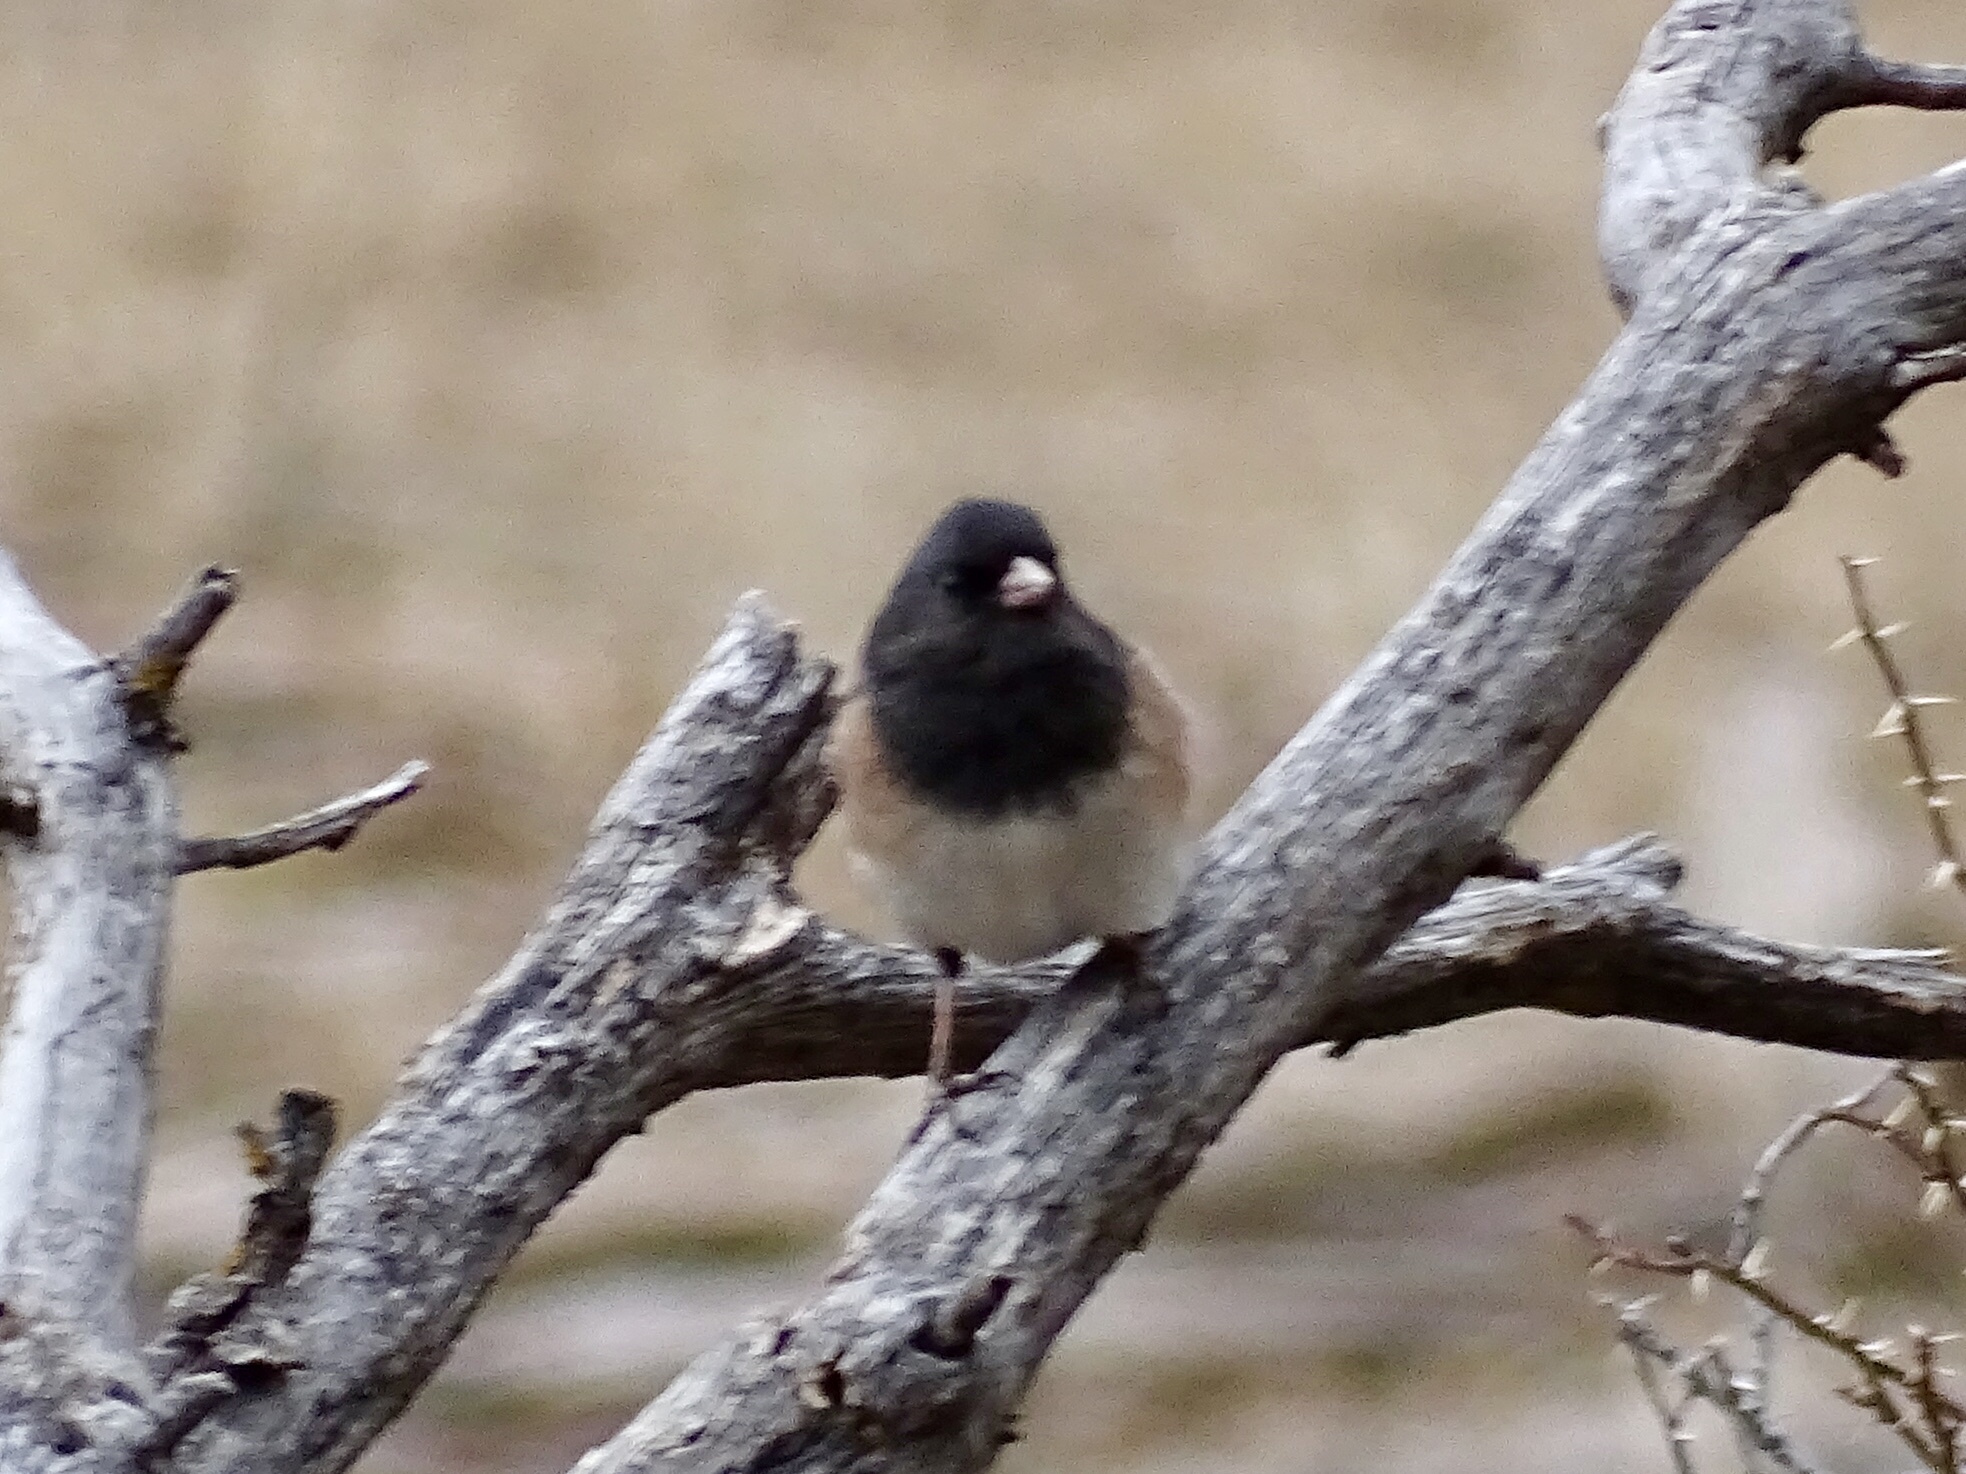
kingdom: Animalia
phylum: Chordata
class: Aves
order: Passeriformes
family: Passerellidae
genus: Junco
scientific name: Junco hyemalis
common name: Dark-eyed junco
